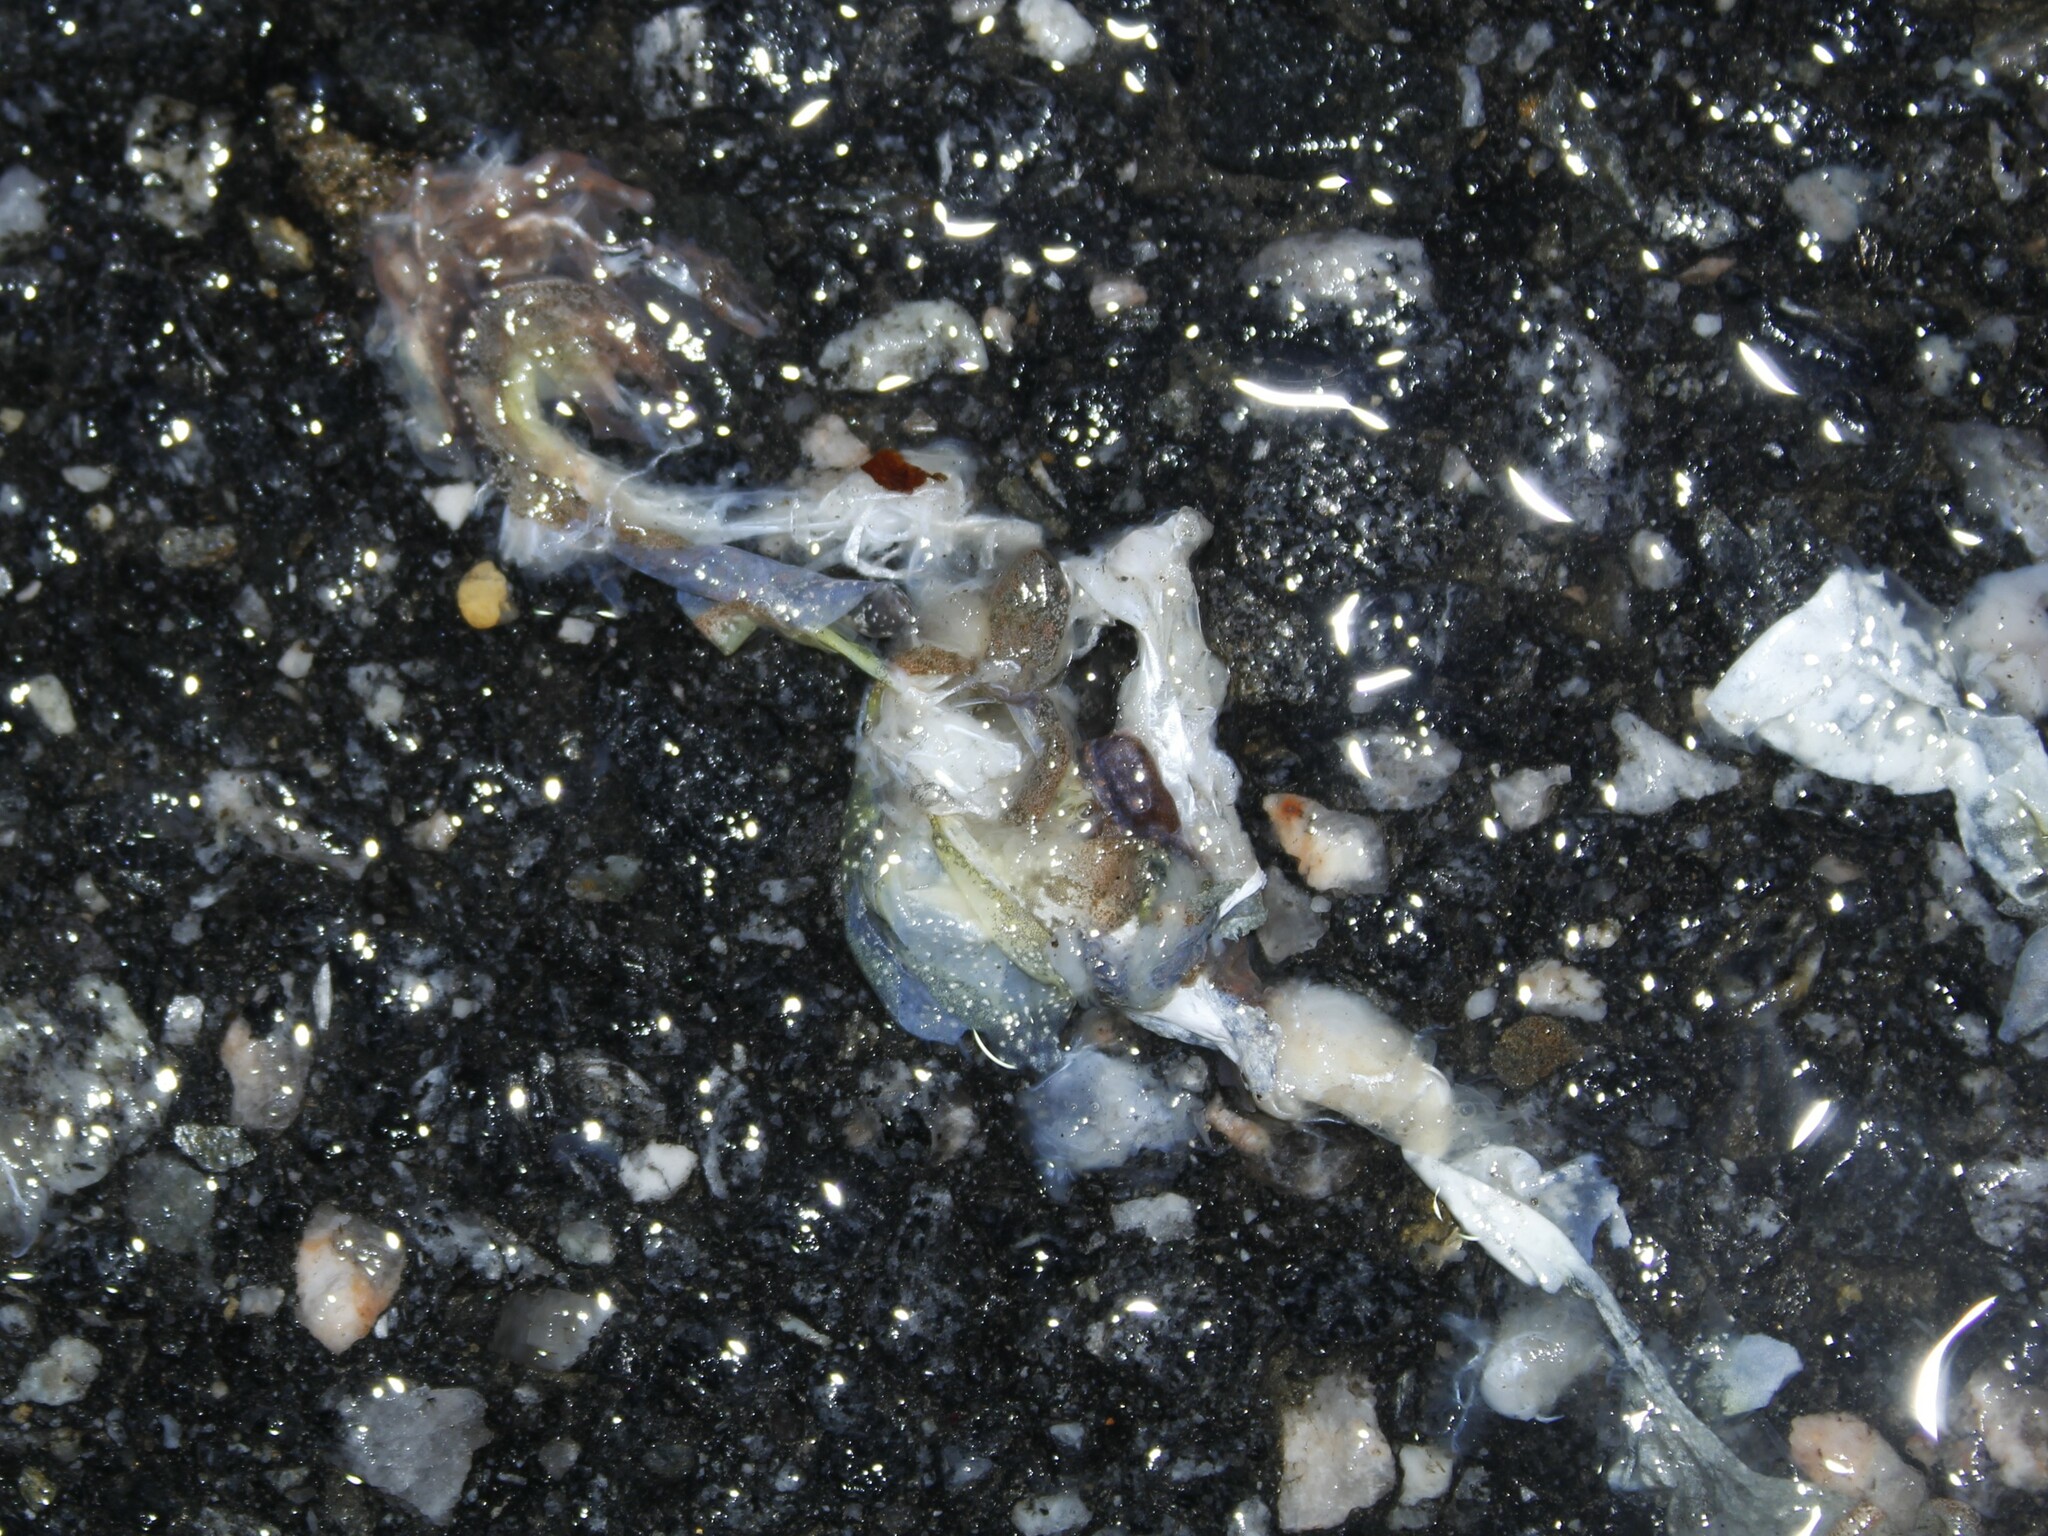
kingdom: Animalia
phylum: Chordata
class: Amphibia
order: Anura
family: Hylidae
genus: Pseudacris
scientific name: Pseudacris crucifer
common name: Spring peeper
